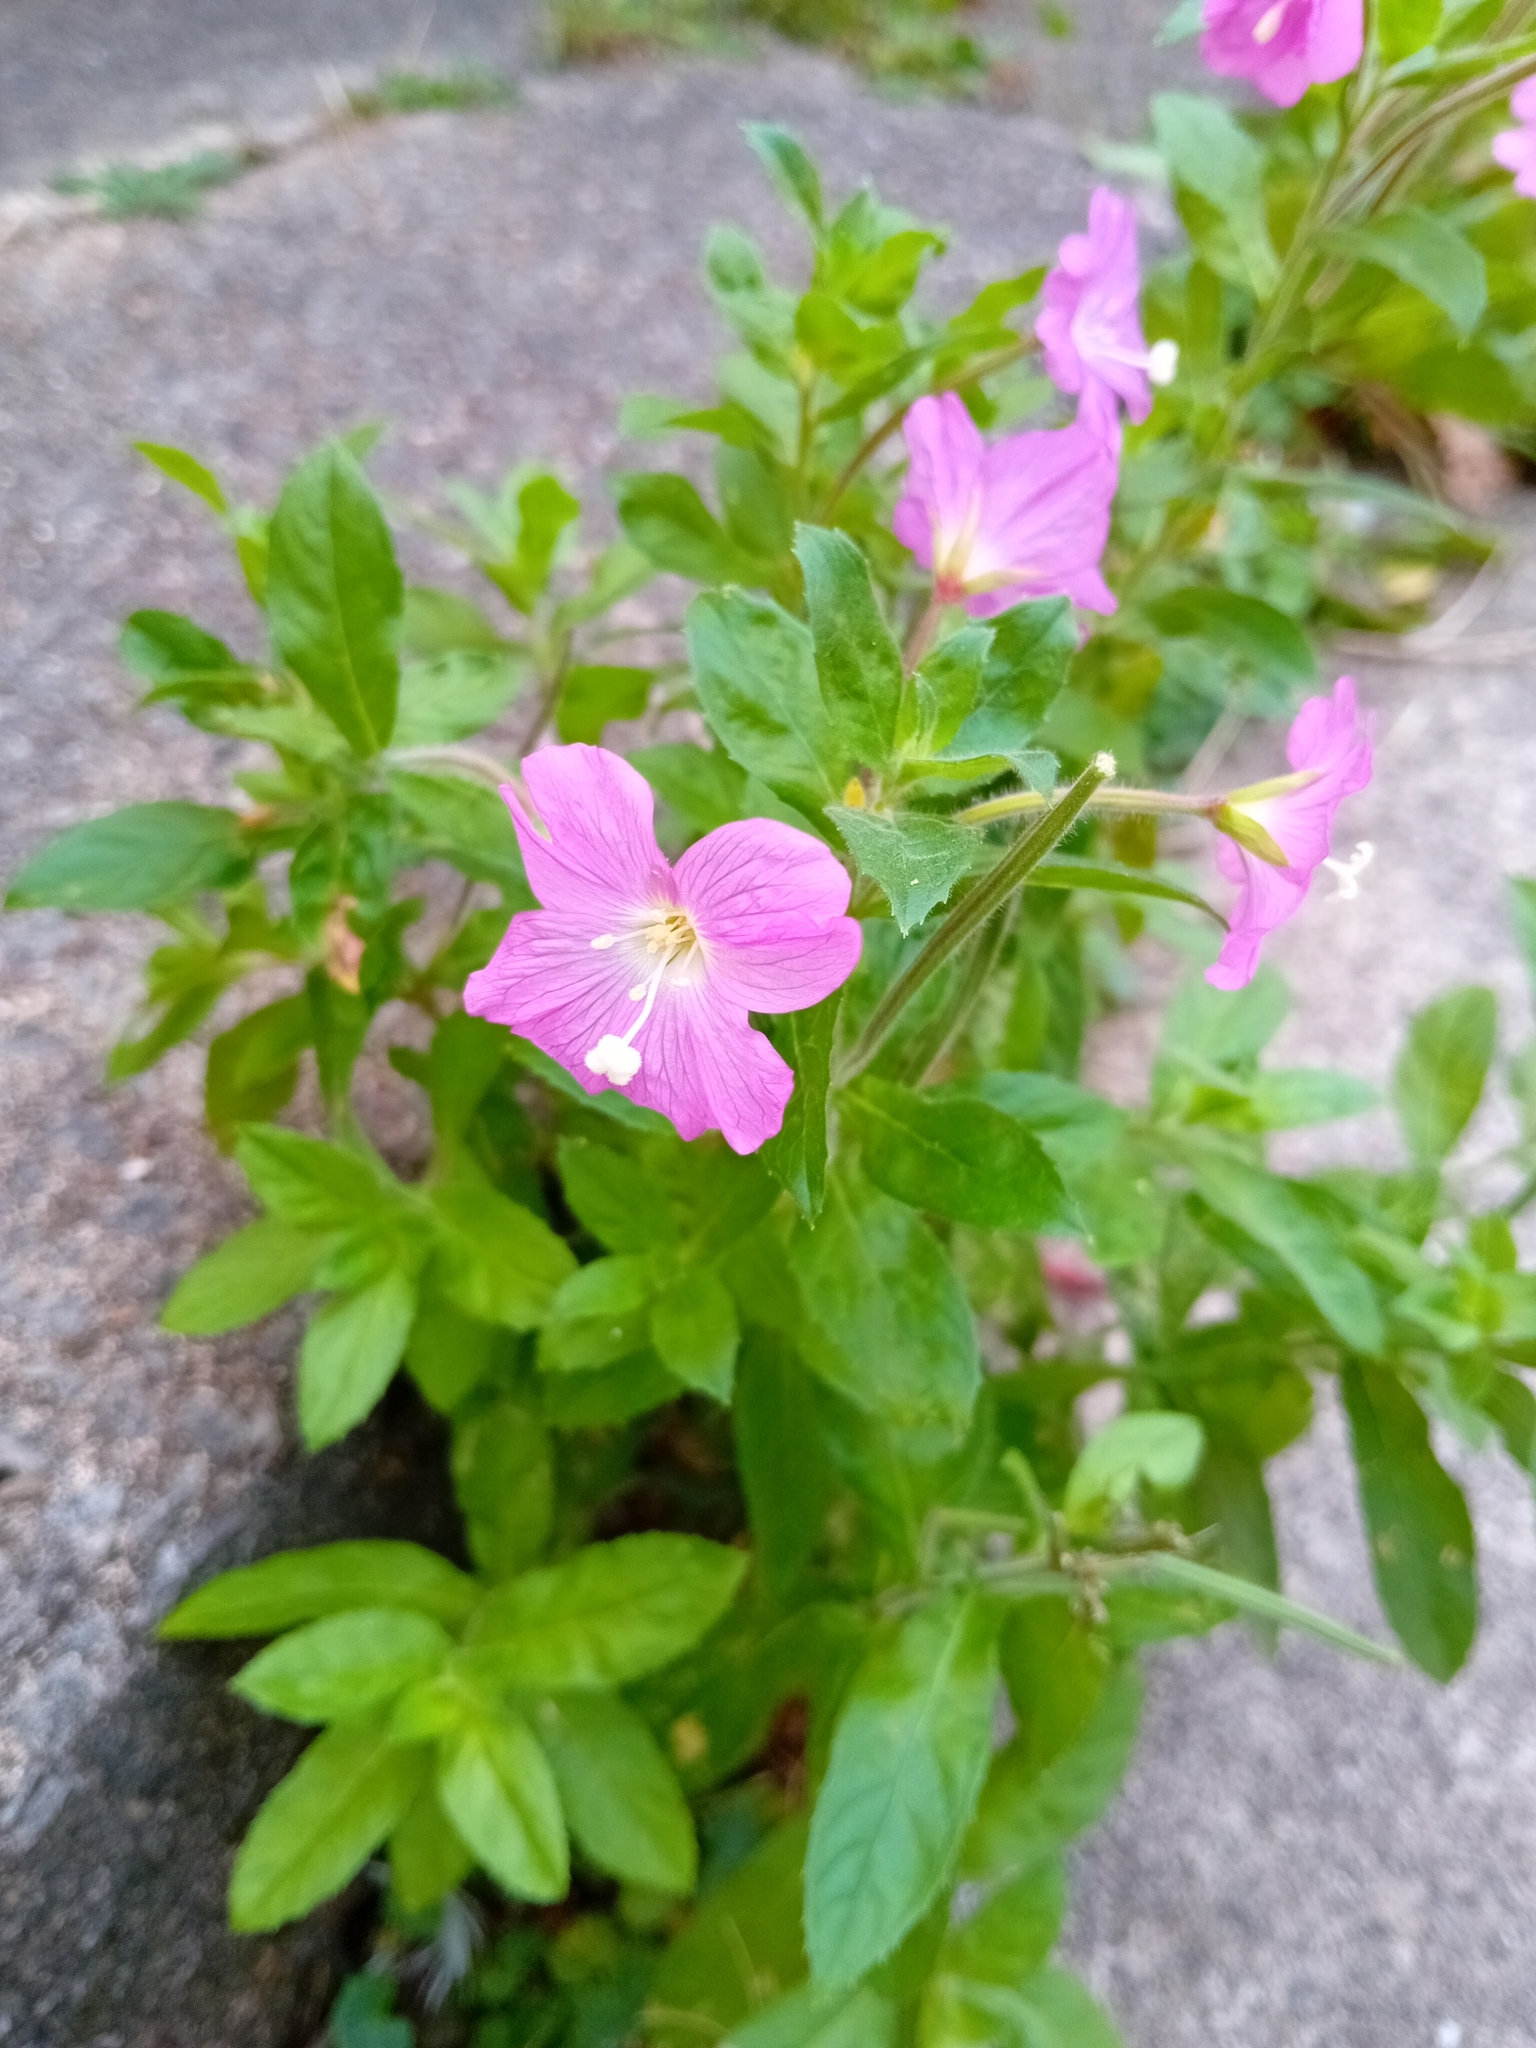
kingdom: Plantae
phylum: Tracheophyta
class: Magnoliopsida
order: Myrtales
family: Onagraceae
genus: Epilobium
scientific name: Epilobium hirsutum
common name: Great willowherb
